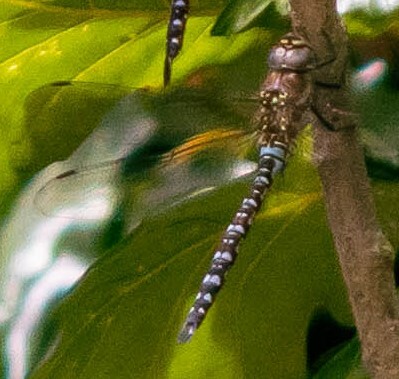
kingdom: Animalia
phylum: Arthropoda
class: Insecta
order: Odonata
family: Aeshnidae
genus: Aeshna
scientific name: Aeshna mixta
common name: Migrant hawker
